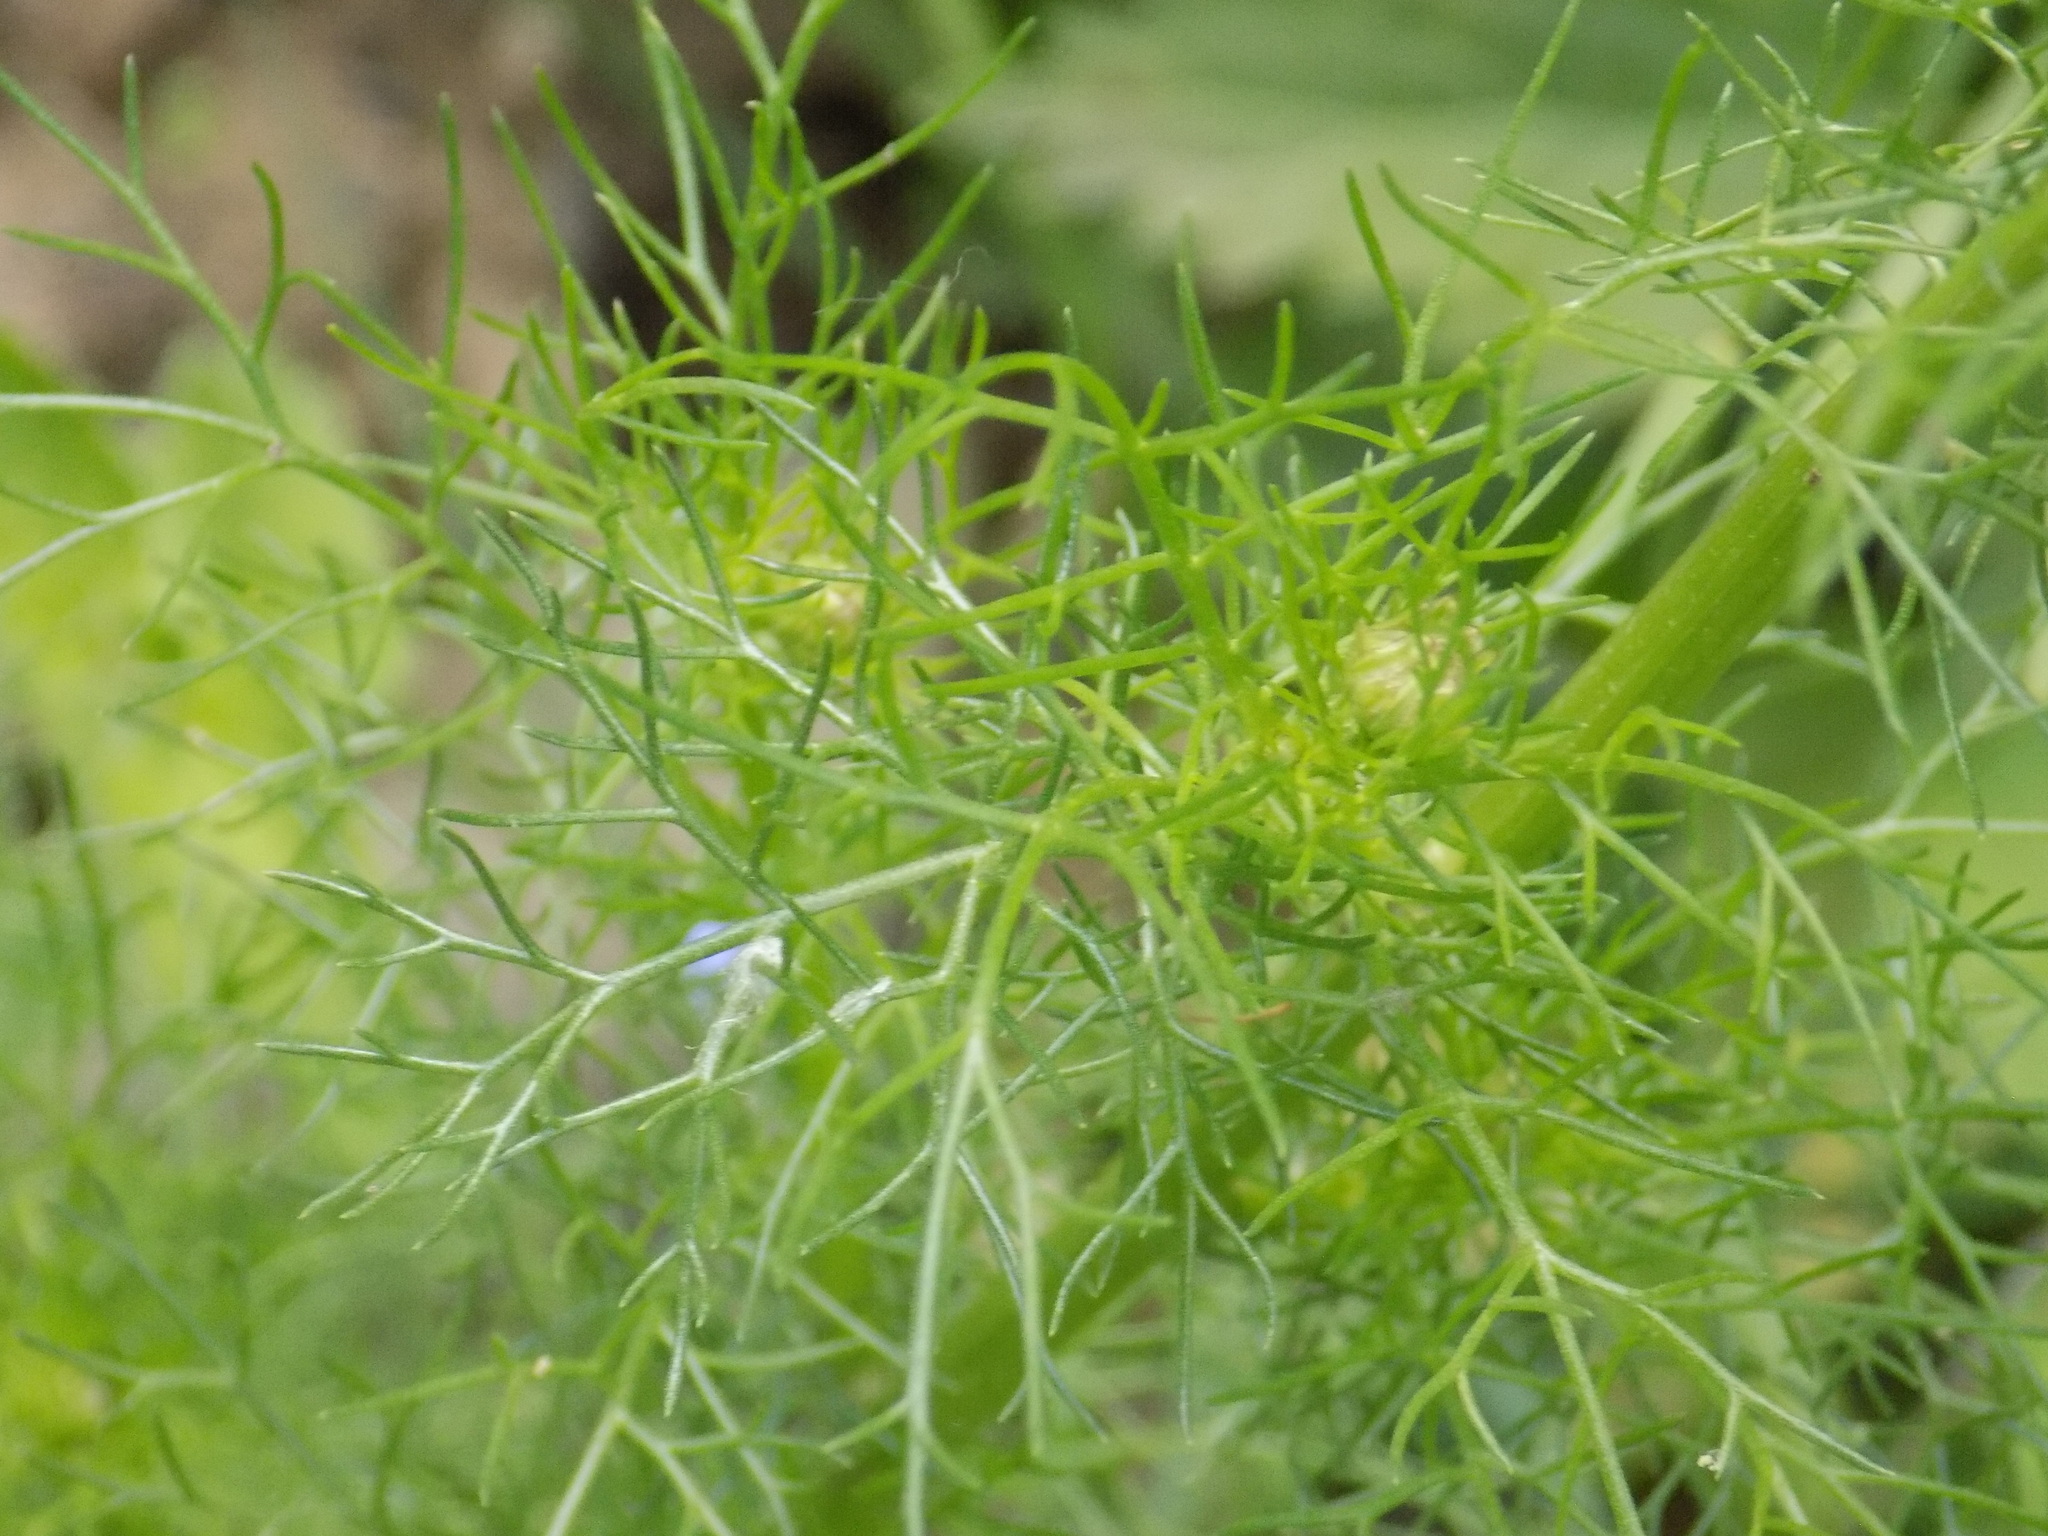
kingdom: Plantae
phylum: Tracheophyta
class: Magnoliopsida
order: Asterales
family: Asteraceae
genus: Tripleurospermum
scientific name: Tripleurospermum inodorum
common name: Scentless mayweed
